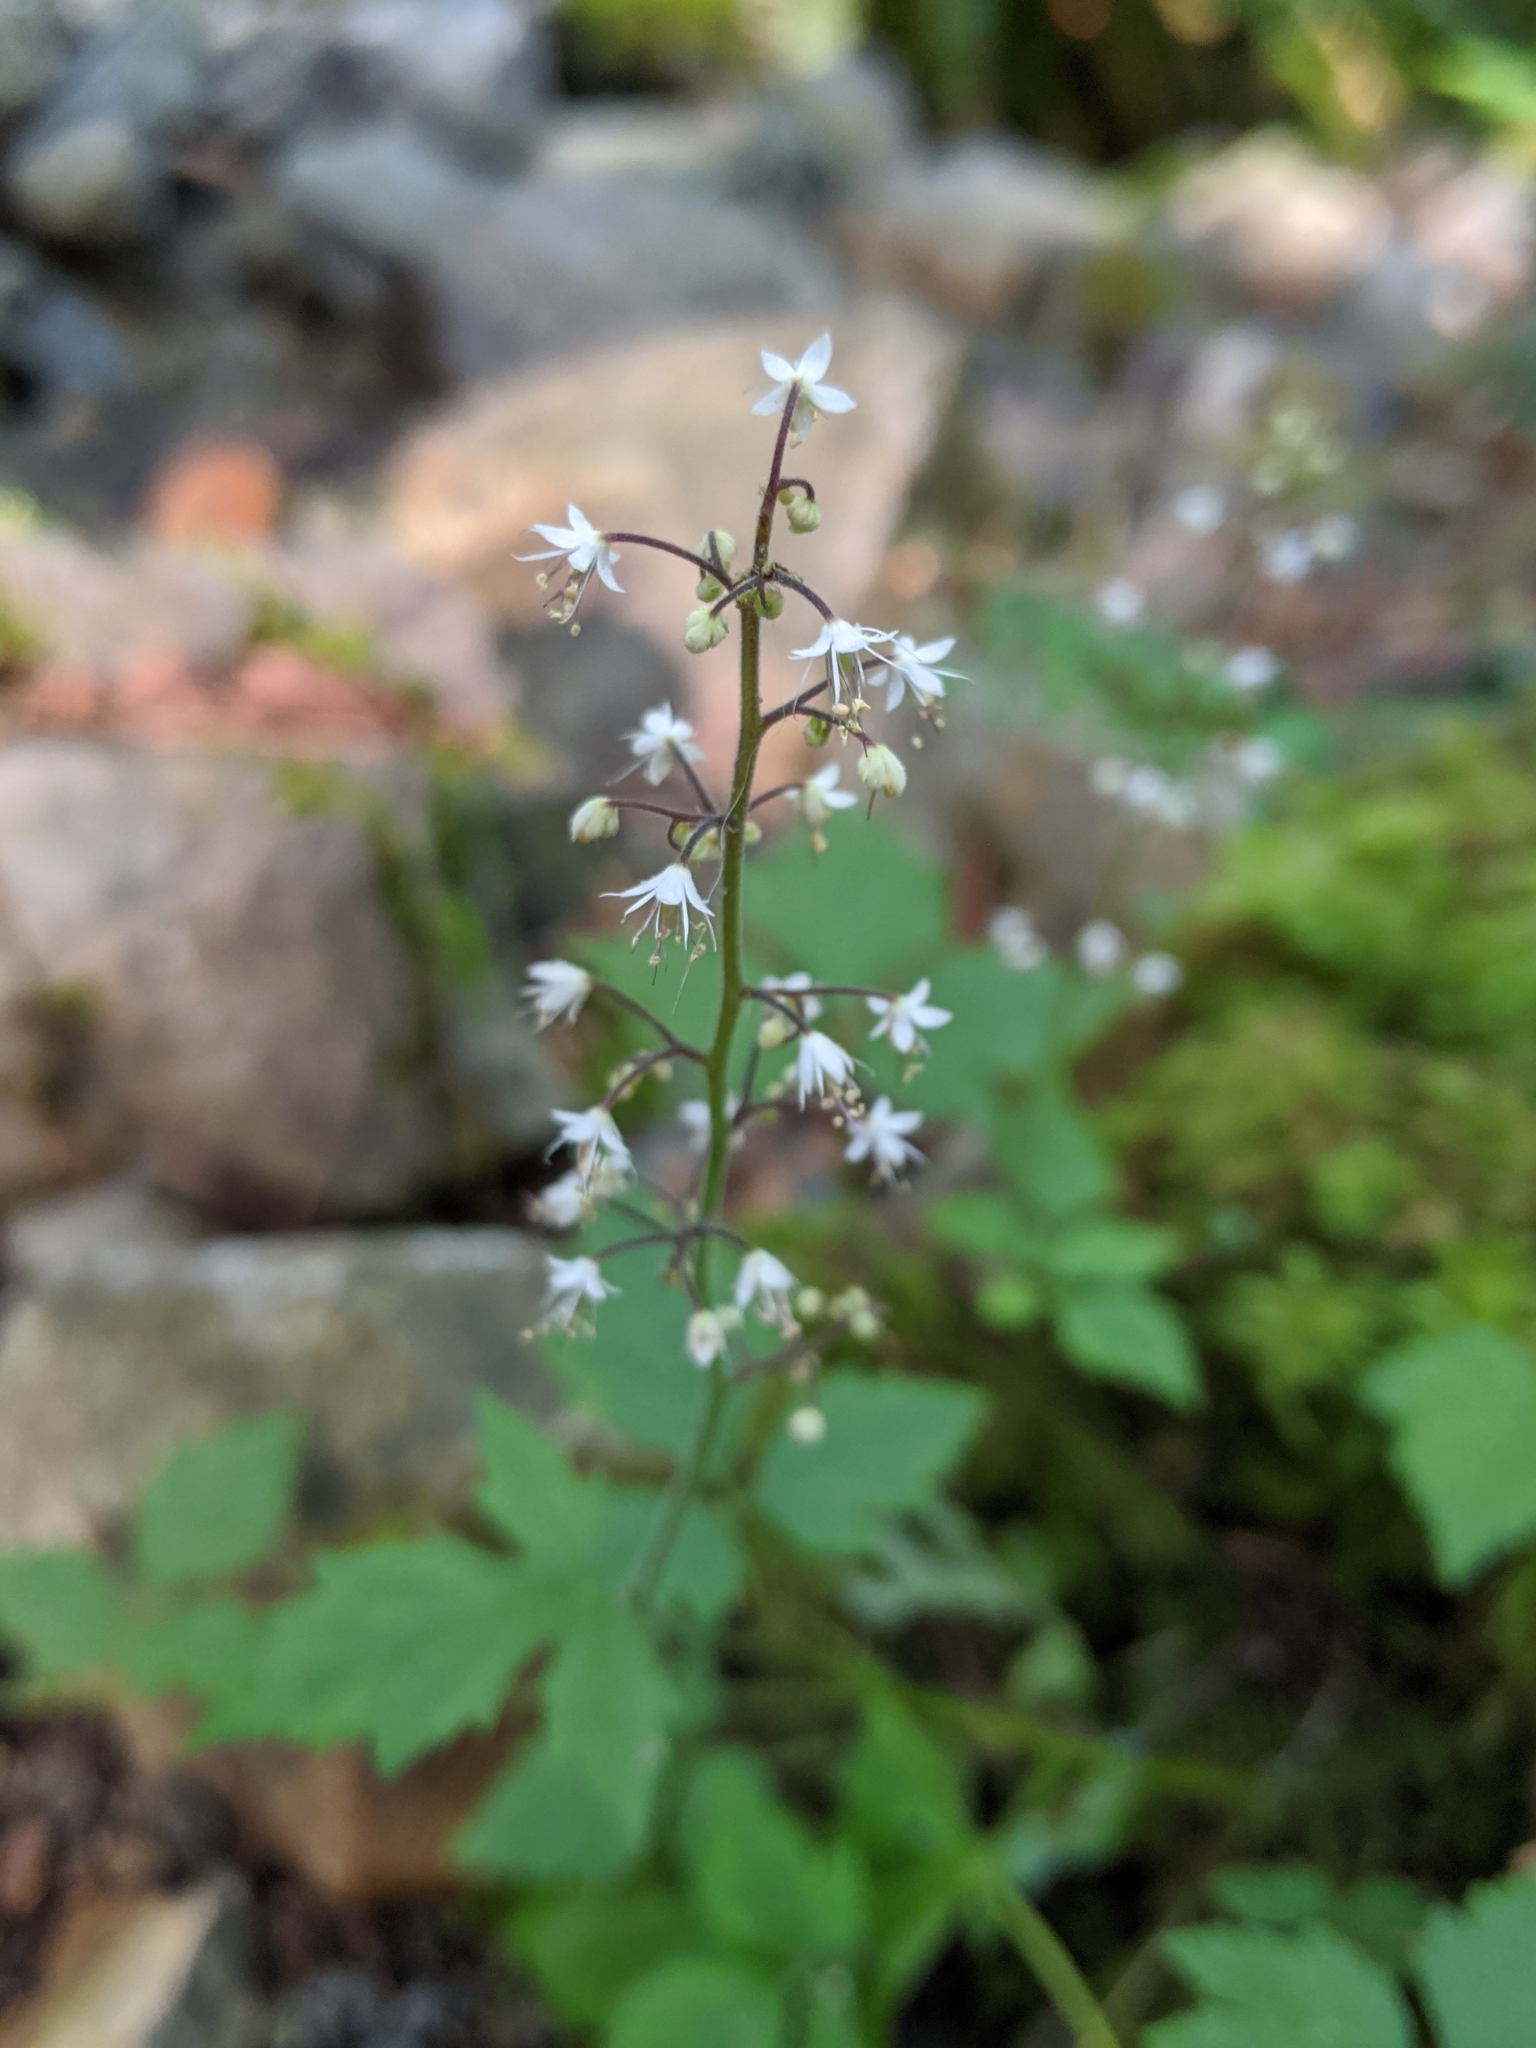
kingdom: Plantae
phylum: Tracheophyta
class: Magnoliopsida
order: Saxifragales
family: Saxifragaceae
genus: Tiarella
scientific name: Tiarella trifoliata
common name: Sugar-scoop
